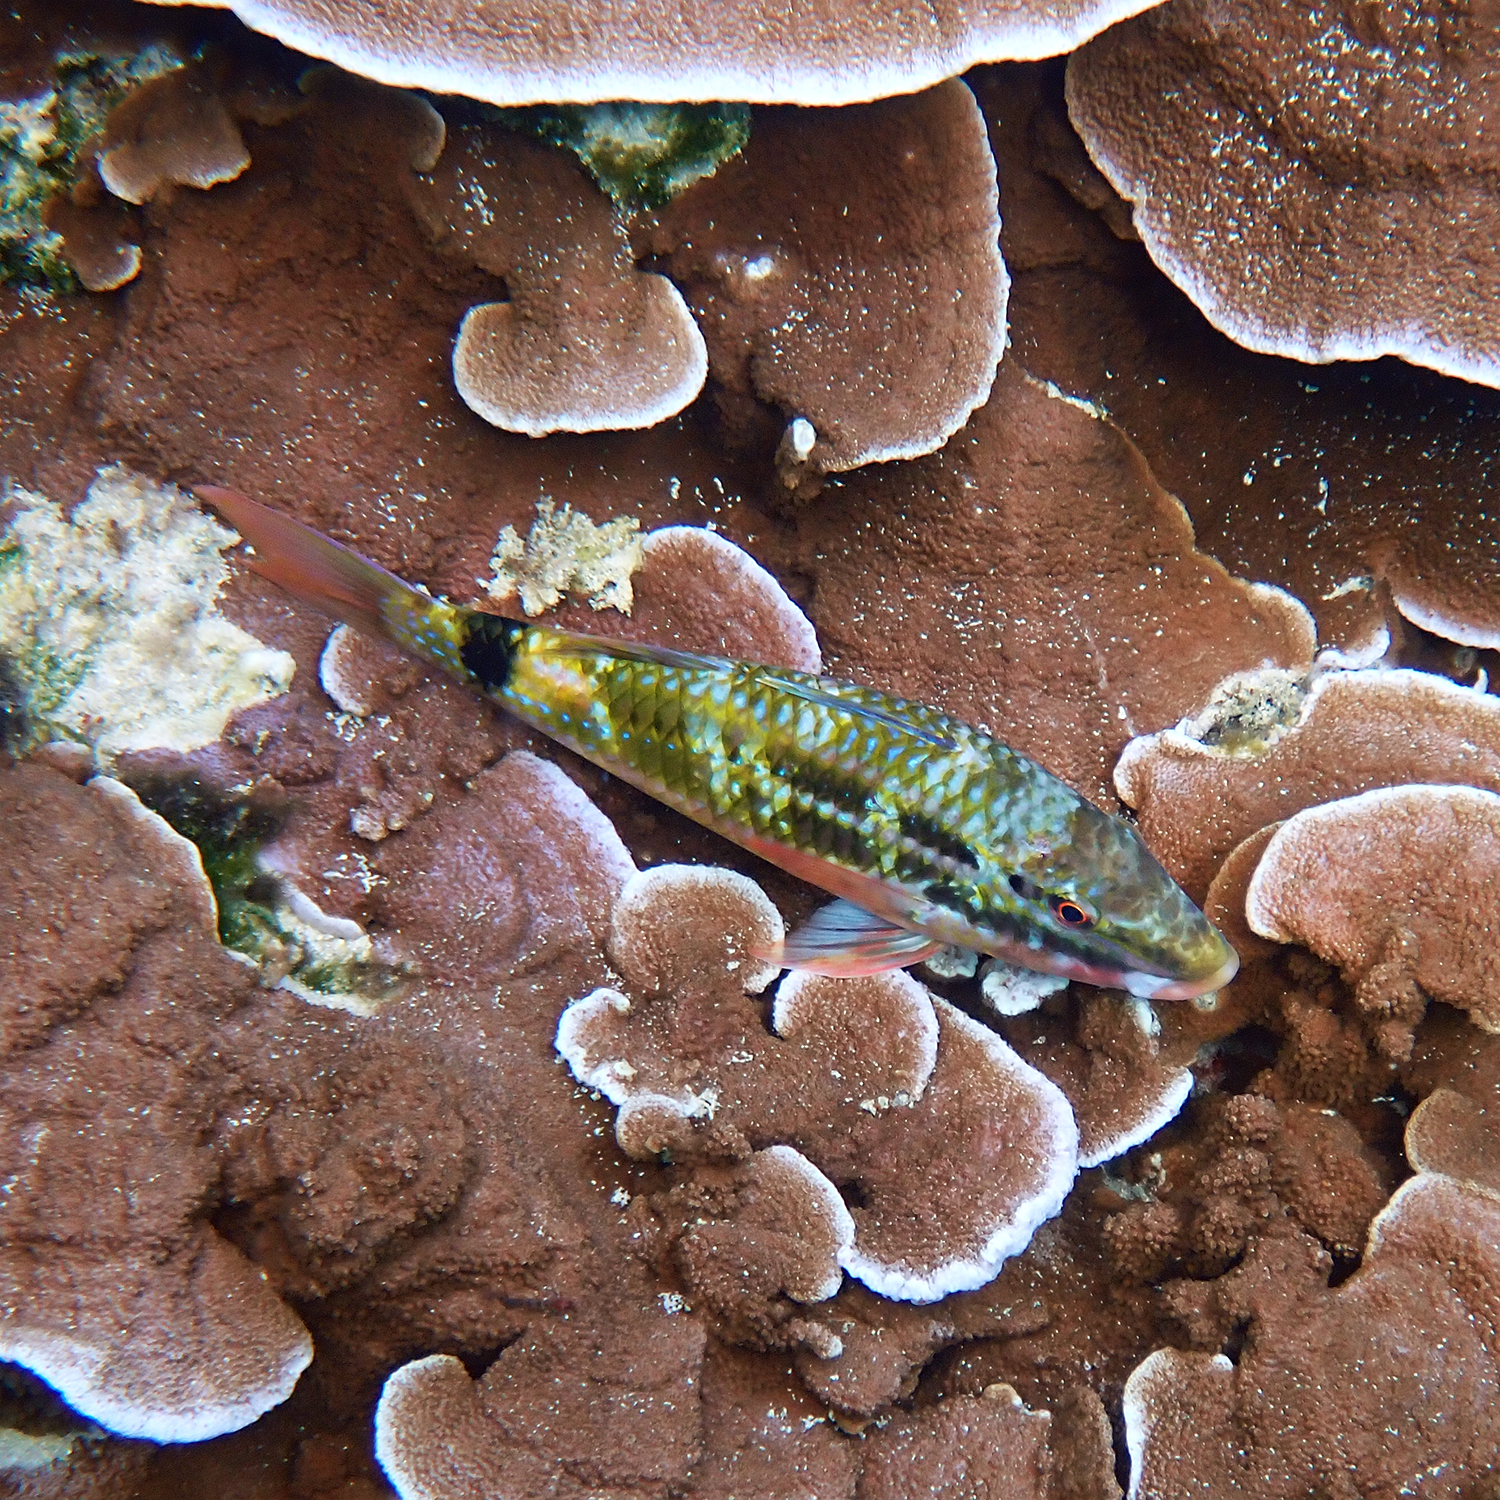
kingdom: Animalia
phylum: Chordata
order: Perciformes
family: Mullidae
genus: Parupeneus
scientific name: Parupeneus spilurus
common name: Blackspot goatfish
